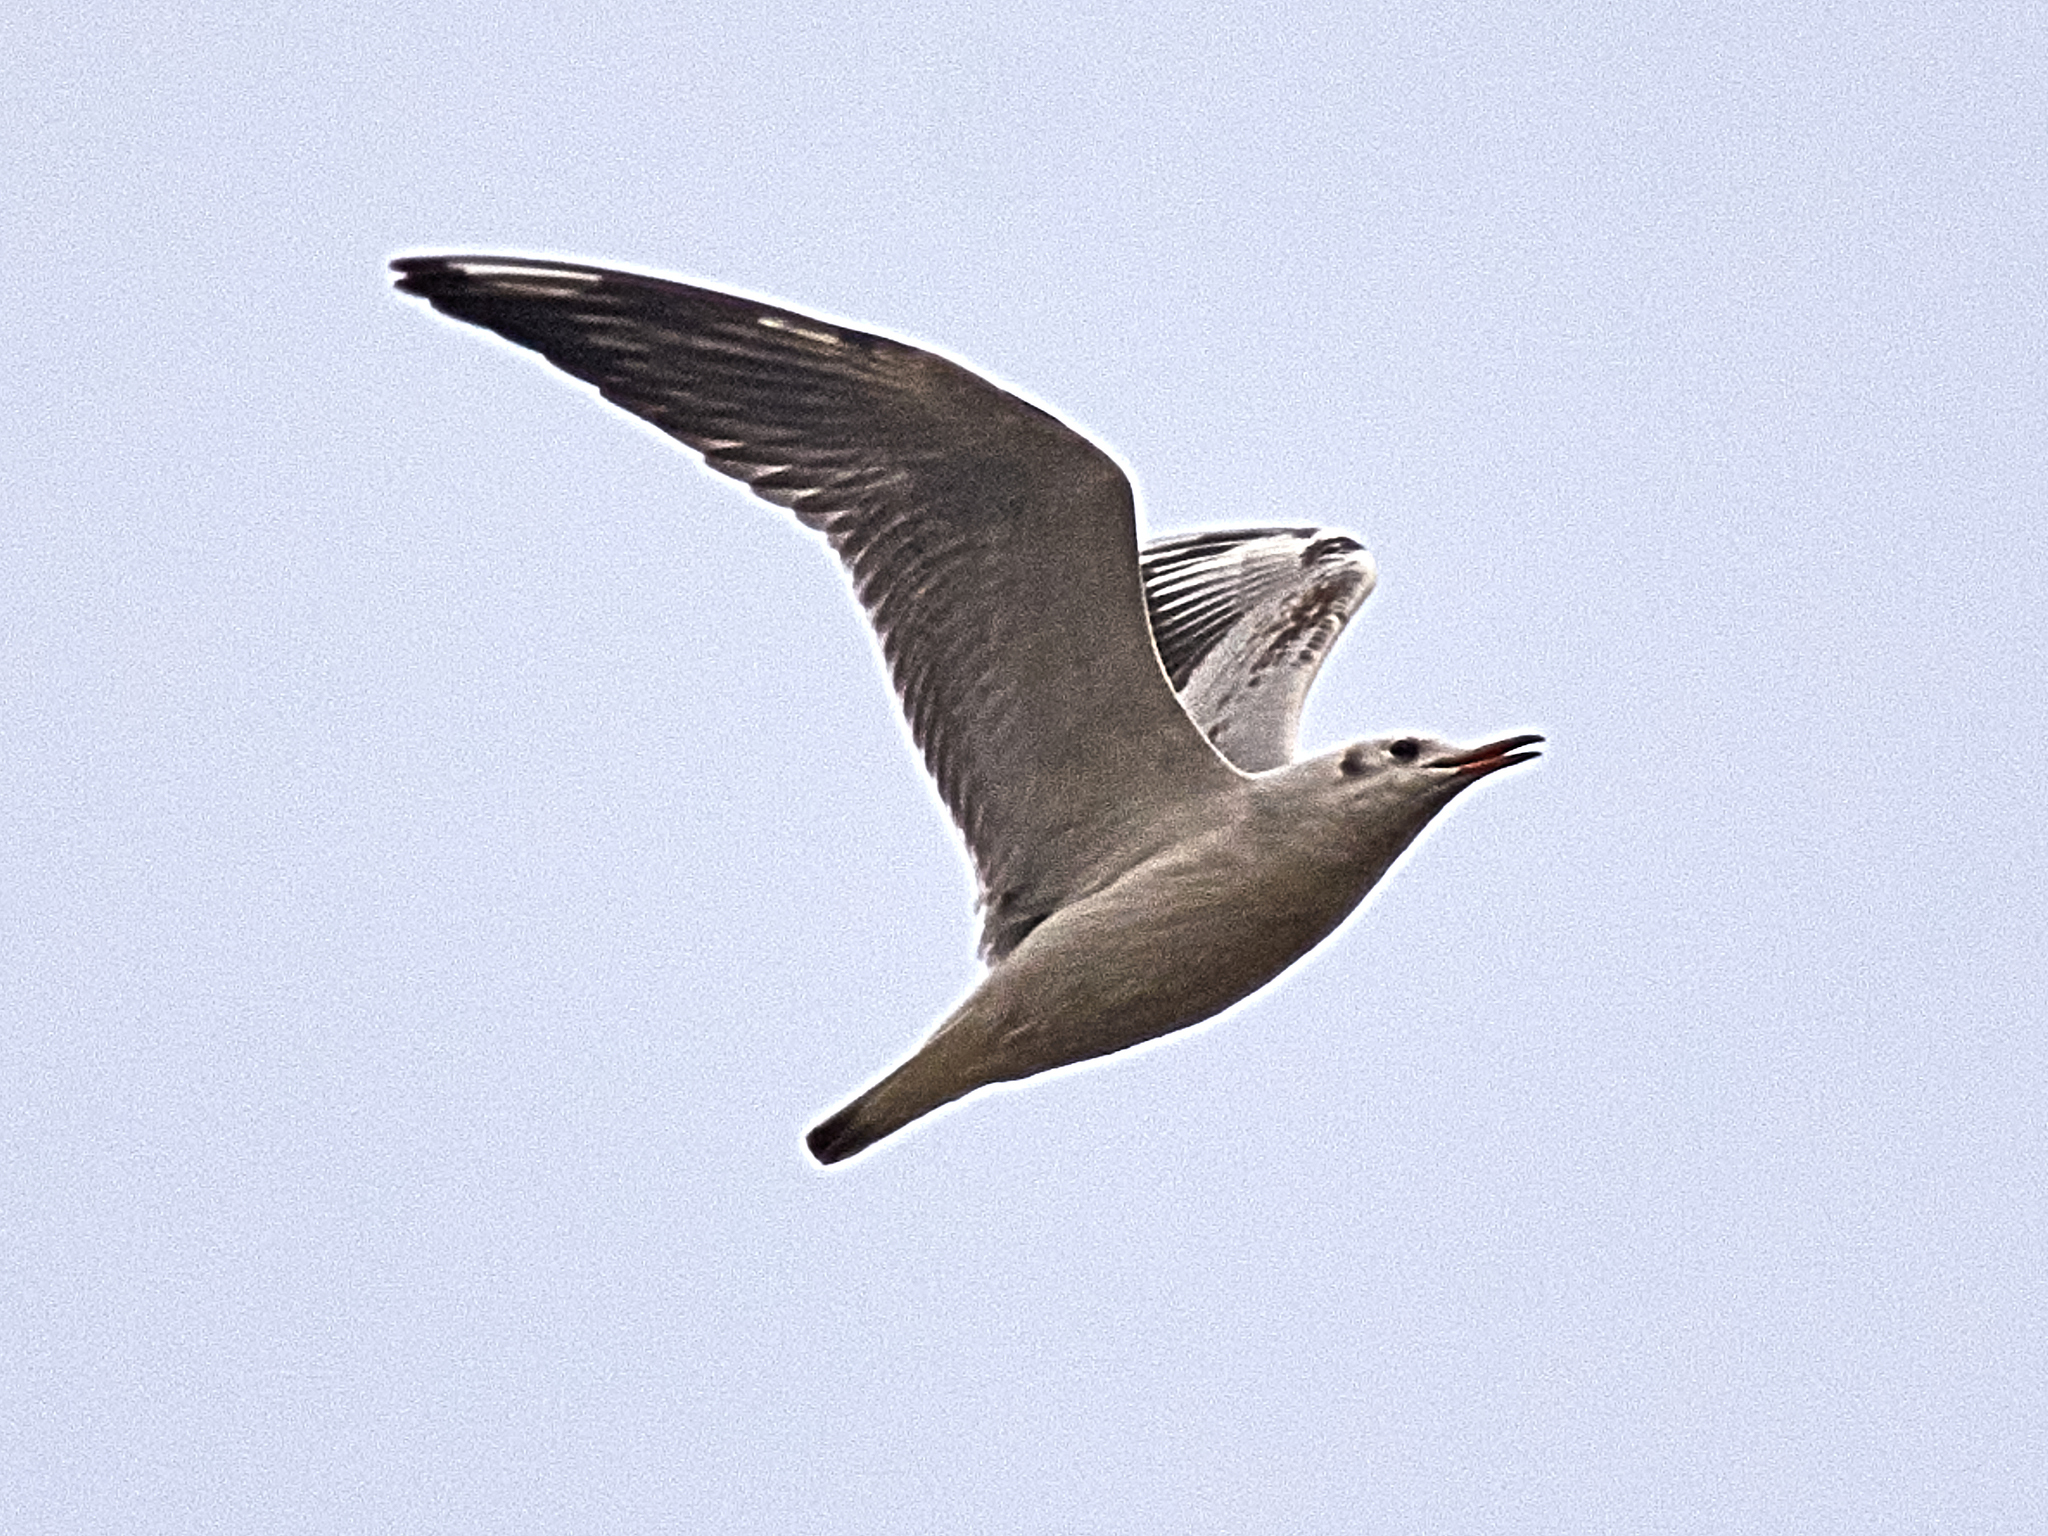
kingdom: Animalia
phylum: Chordata
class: Aves
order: Charadriiformes
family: Laridae
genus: Chroicocephalus
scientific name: Chroicocephalus ridibundus
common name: Black-headed gull
